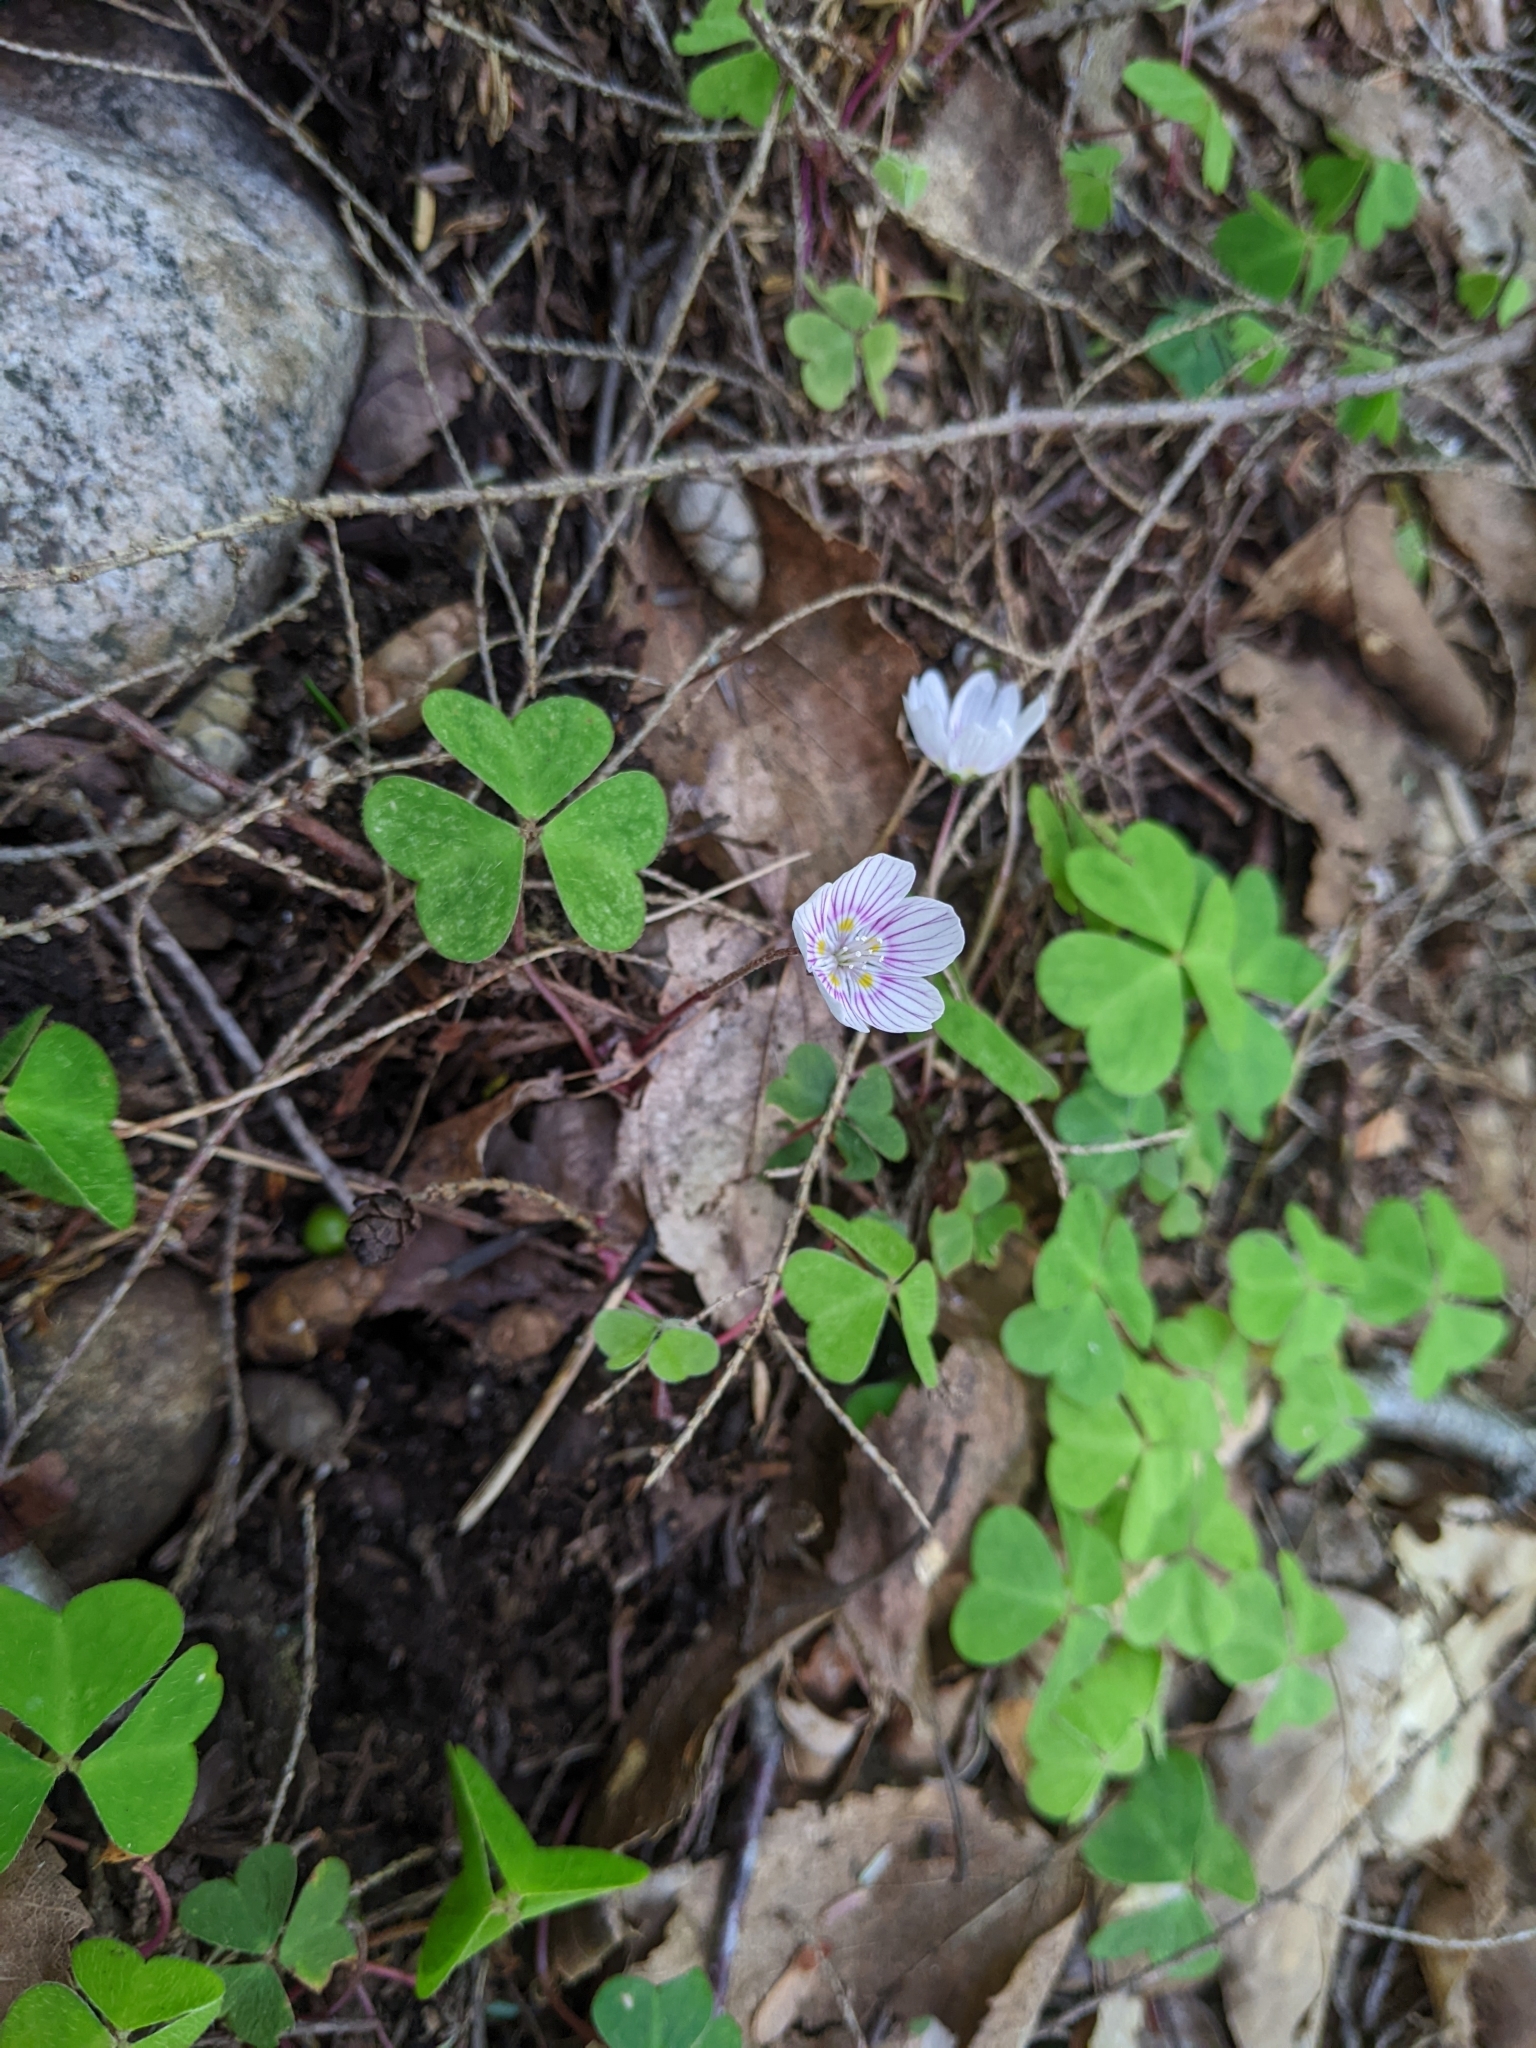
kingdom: Plantae
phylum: Tracheophyta
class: Magnoliopsida
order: Oxalidales
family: Oxalidaceae
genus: Oxalis
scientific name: Oxalis montana
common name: American wood-sorrel
